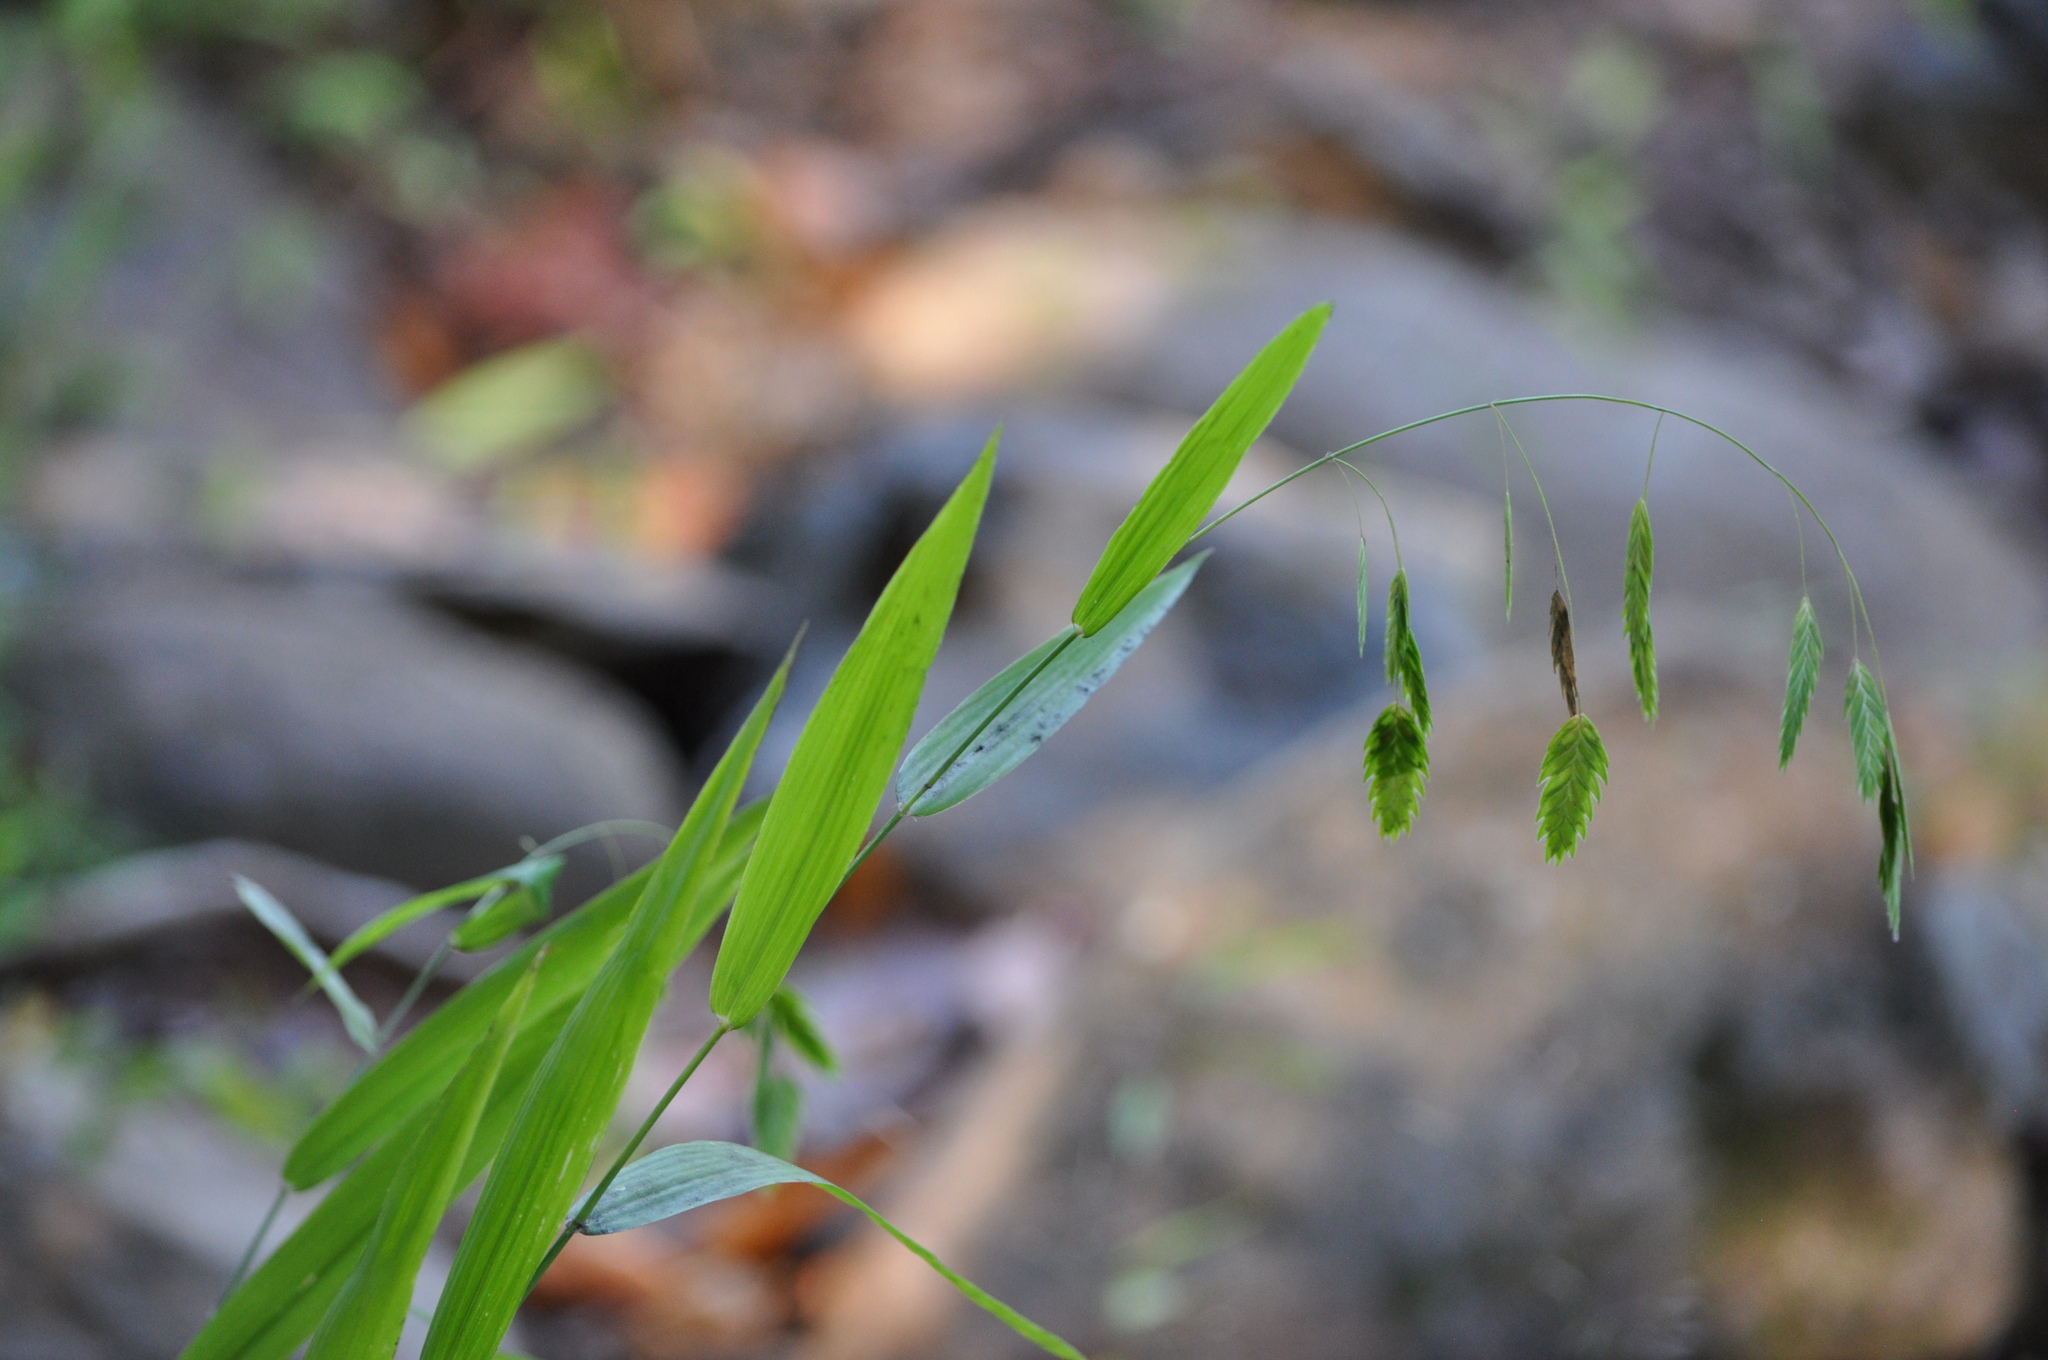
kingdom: Plantae
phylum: Tracheophyta
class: Liliopsida
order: Poales
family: Poaceae
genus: Chasmanthium
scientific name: Chasmanthium latifolium
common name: Broad-leaved chasmanthium
